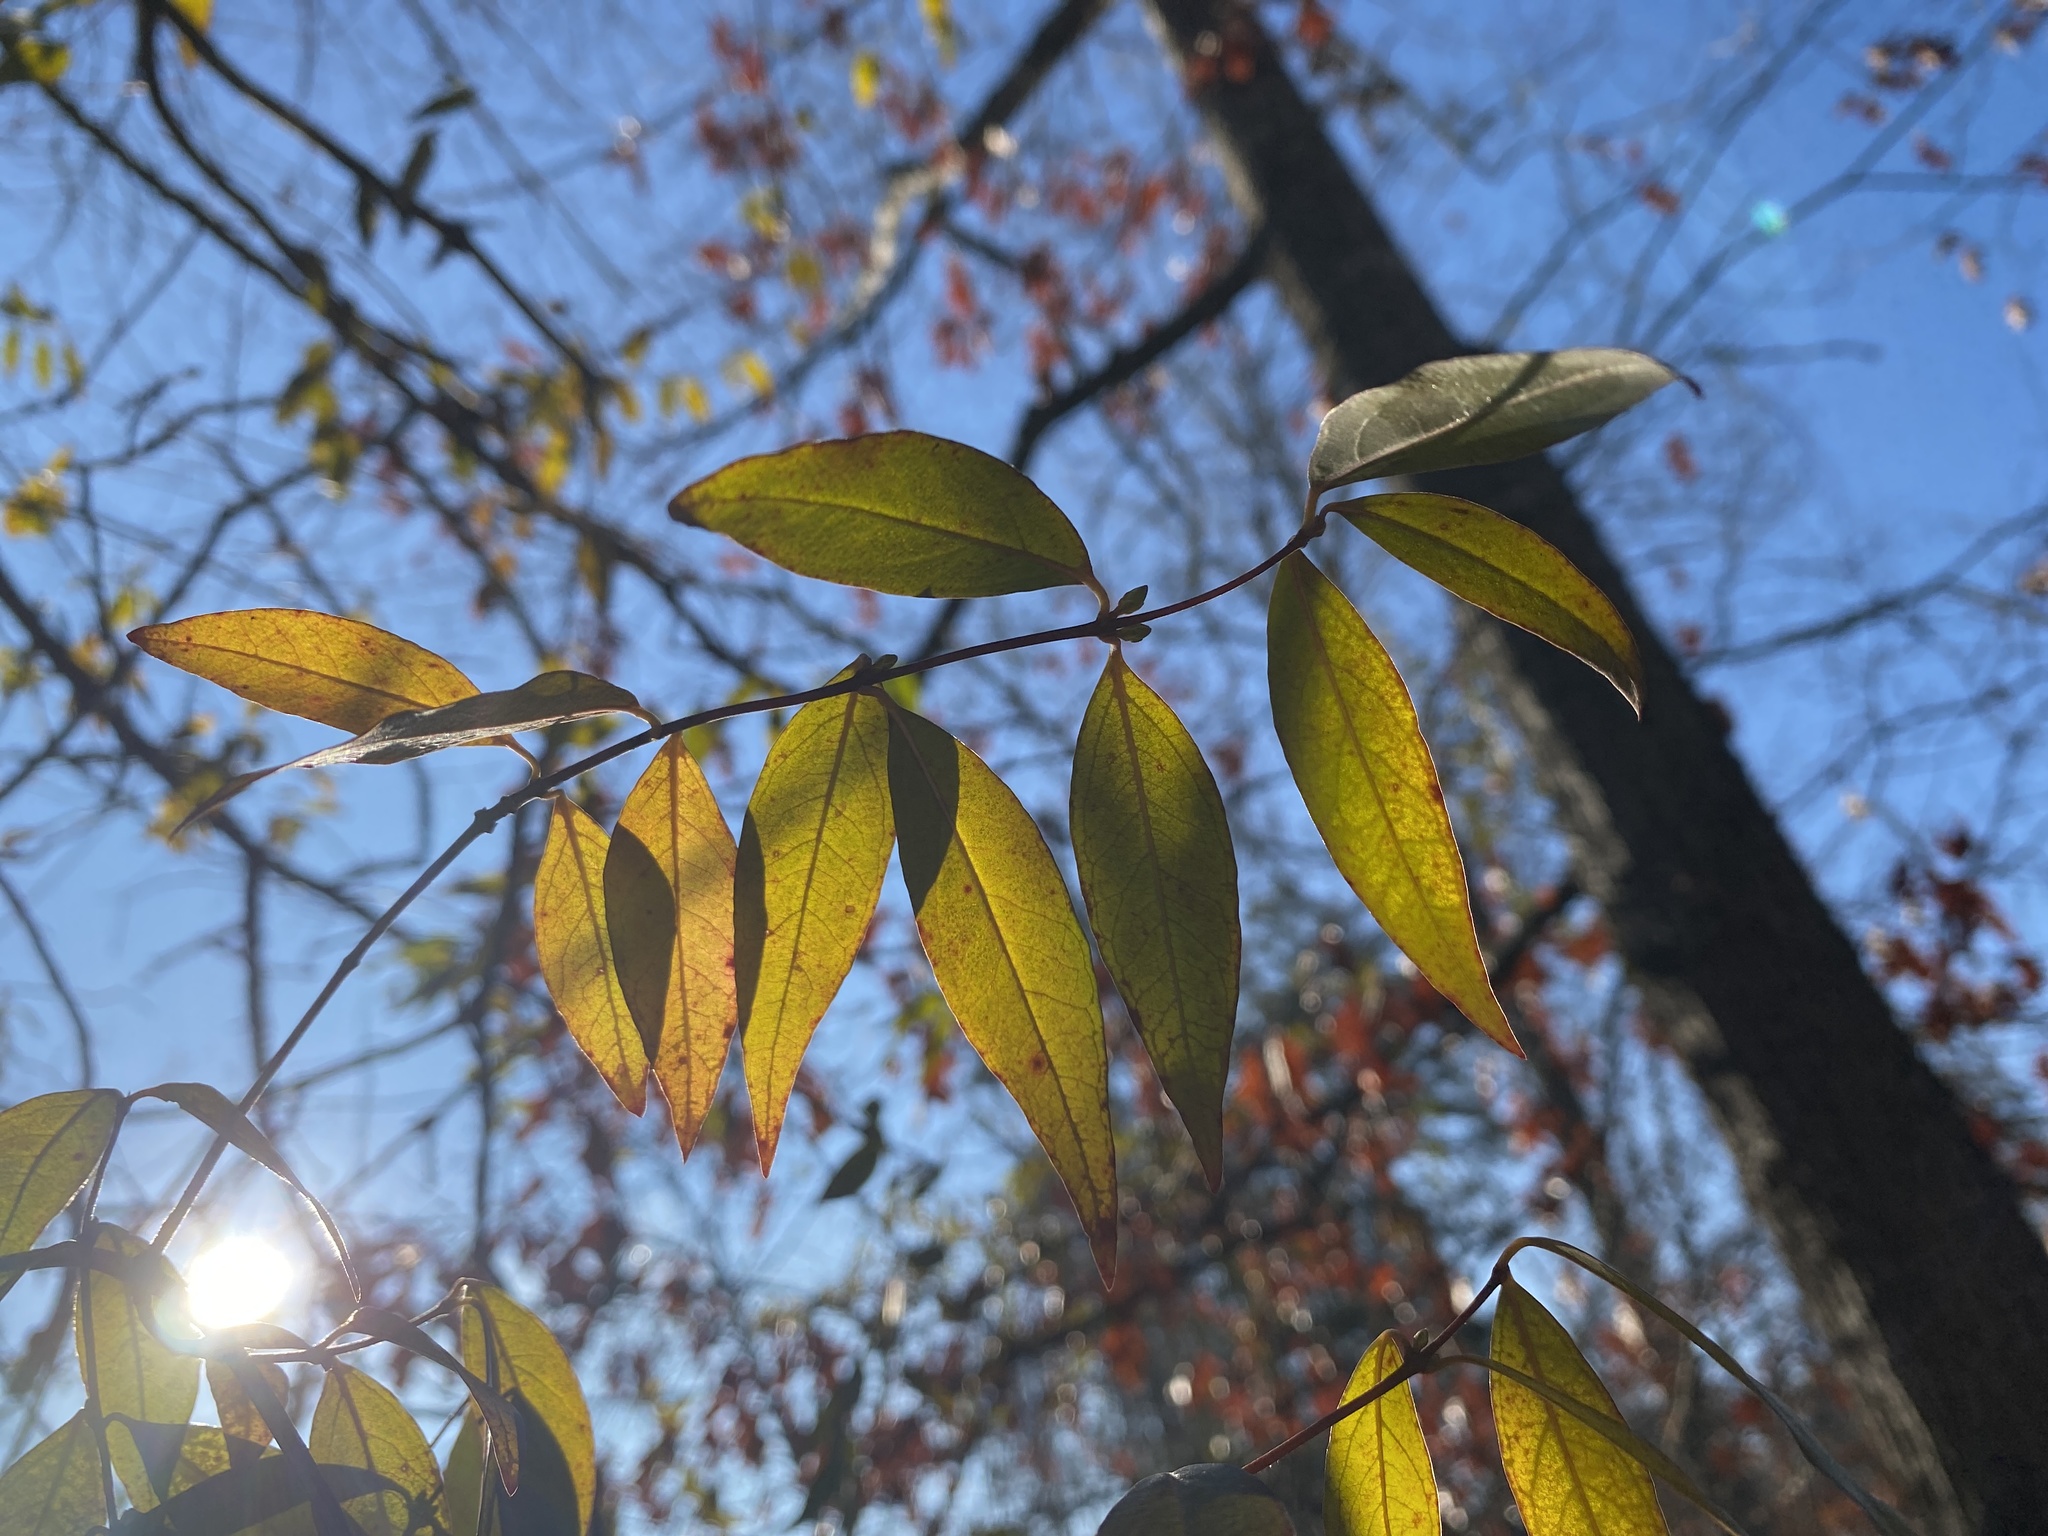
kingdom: Plantae
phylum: Tracheophyta
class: Magnoliopsida
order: Gentianales
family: Gelsemiaceae
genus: Gelsemium
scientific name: Gelsemium sempervirens
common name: Carolina-jasmine
